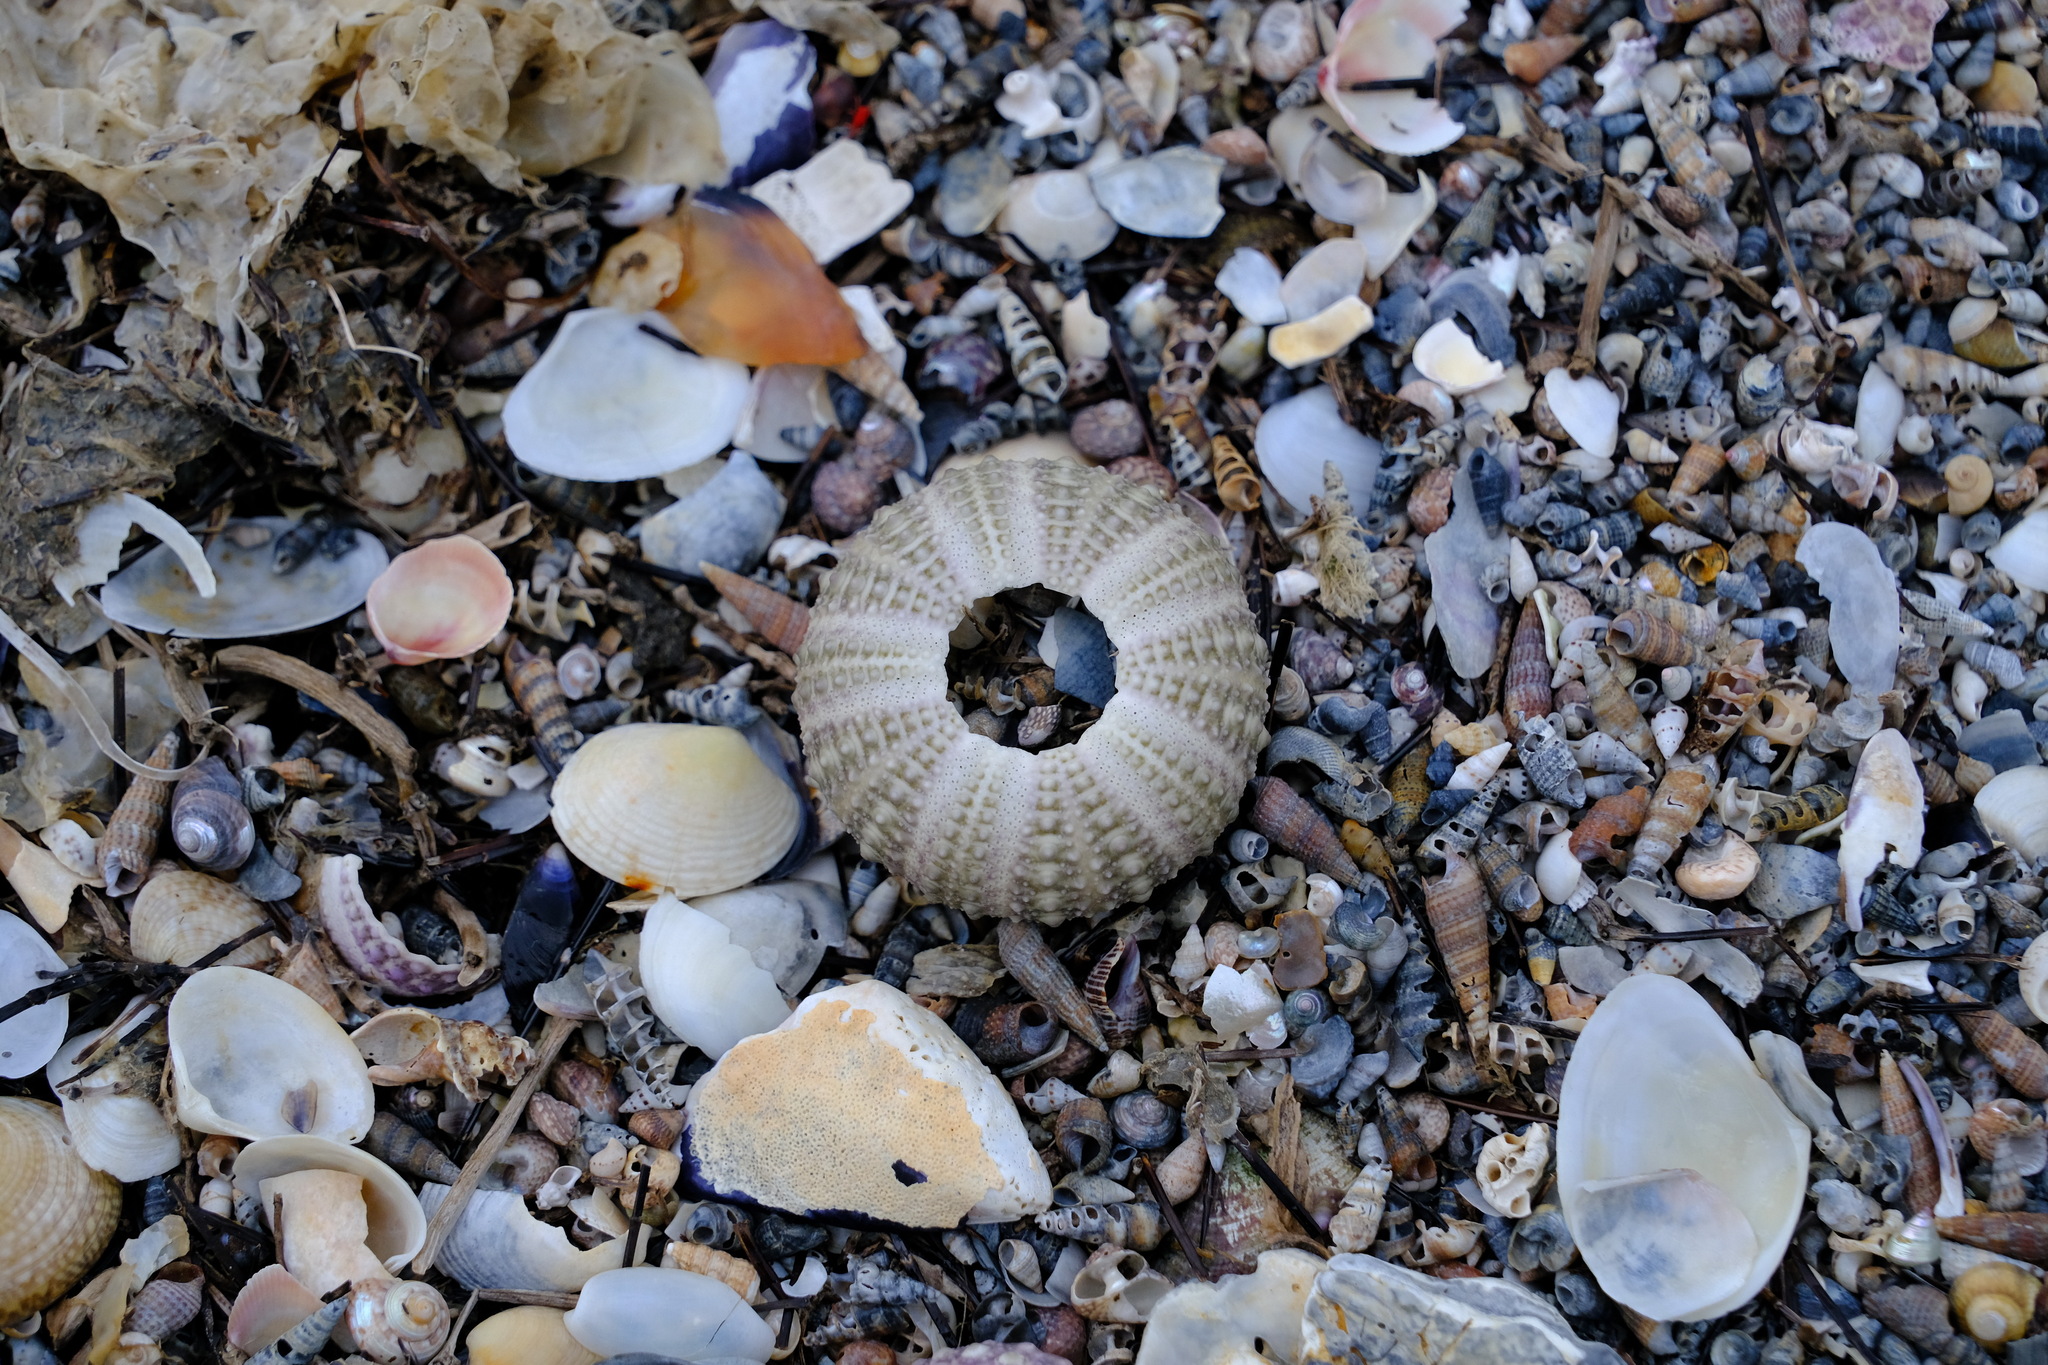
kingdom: Animalia
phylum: Echinodermata
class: Echinoidea
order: Camarodonta
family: Echinometridae
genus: Heliocidaris
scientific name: Heliocidaris erythrogramma
